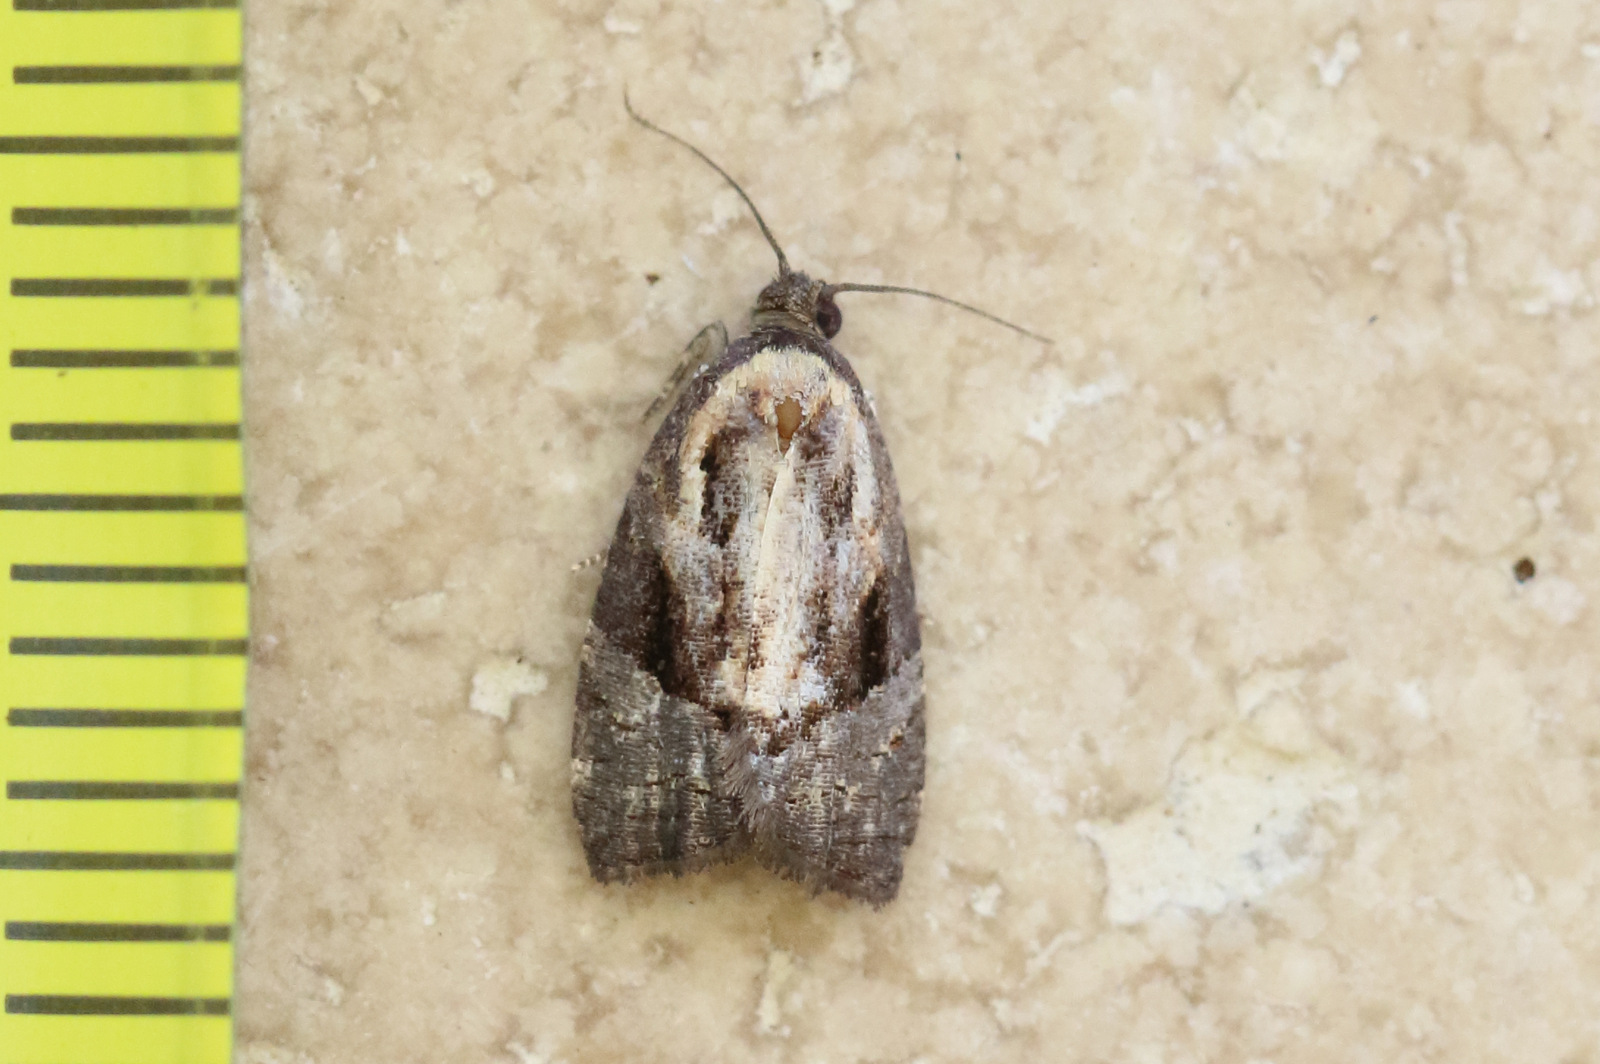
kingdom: Animalia
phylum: Arthropoda
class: Insecta
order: Lepidoptera
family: Tortricidae
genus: Asthenoptycha
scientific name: Asthenoptycha encratopis
